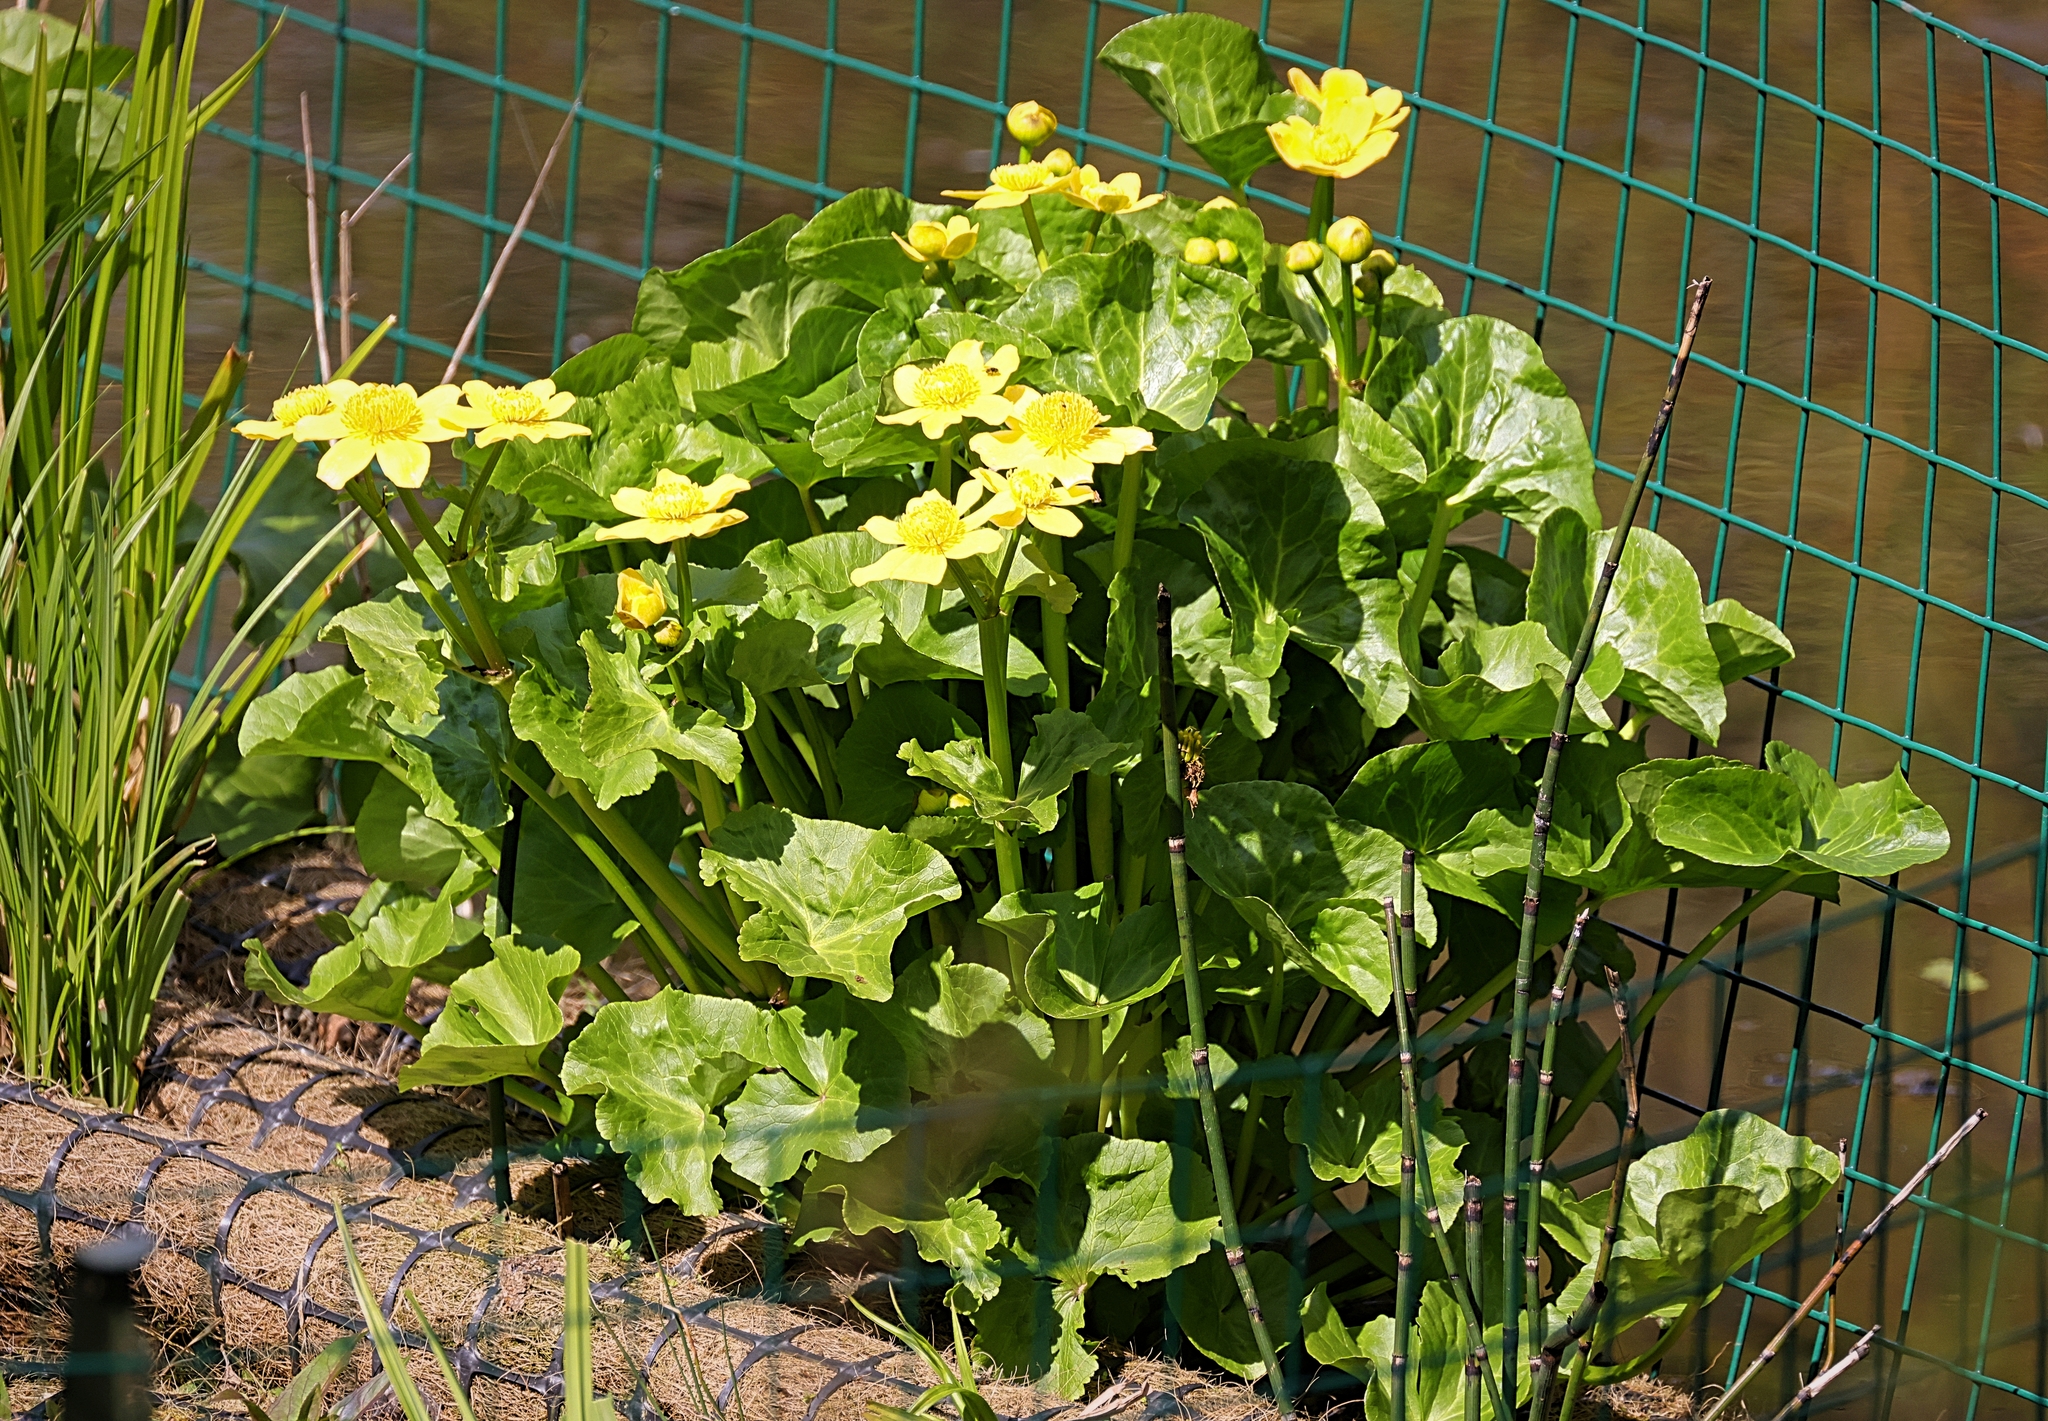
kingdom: Plantae
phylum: Tracheophyta
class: Magnoliopsida
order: Ranunculales
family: Ranunculaceae
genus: Caltha
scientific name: Caltha palustris
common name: Marsh marigold
